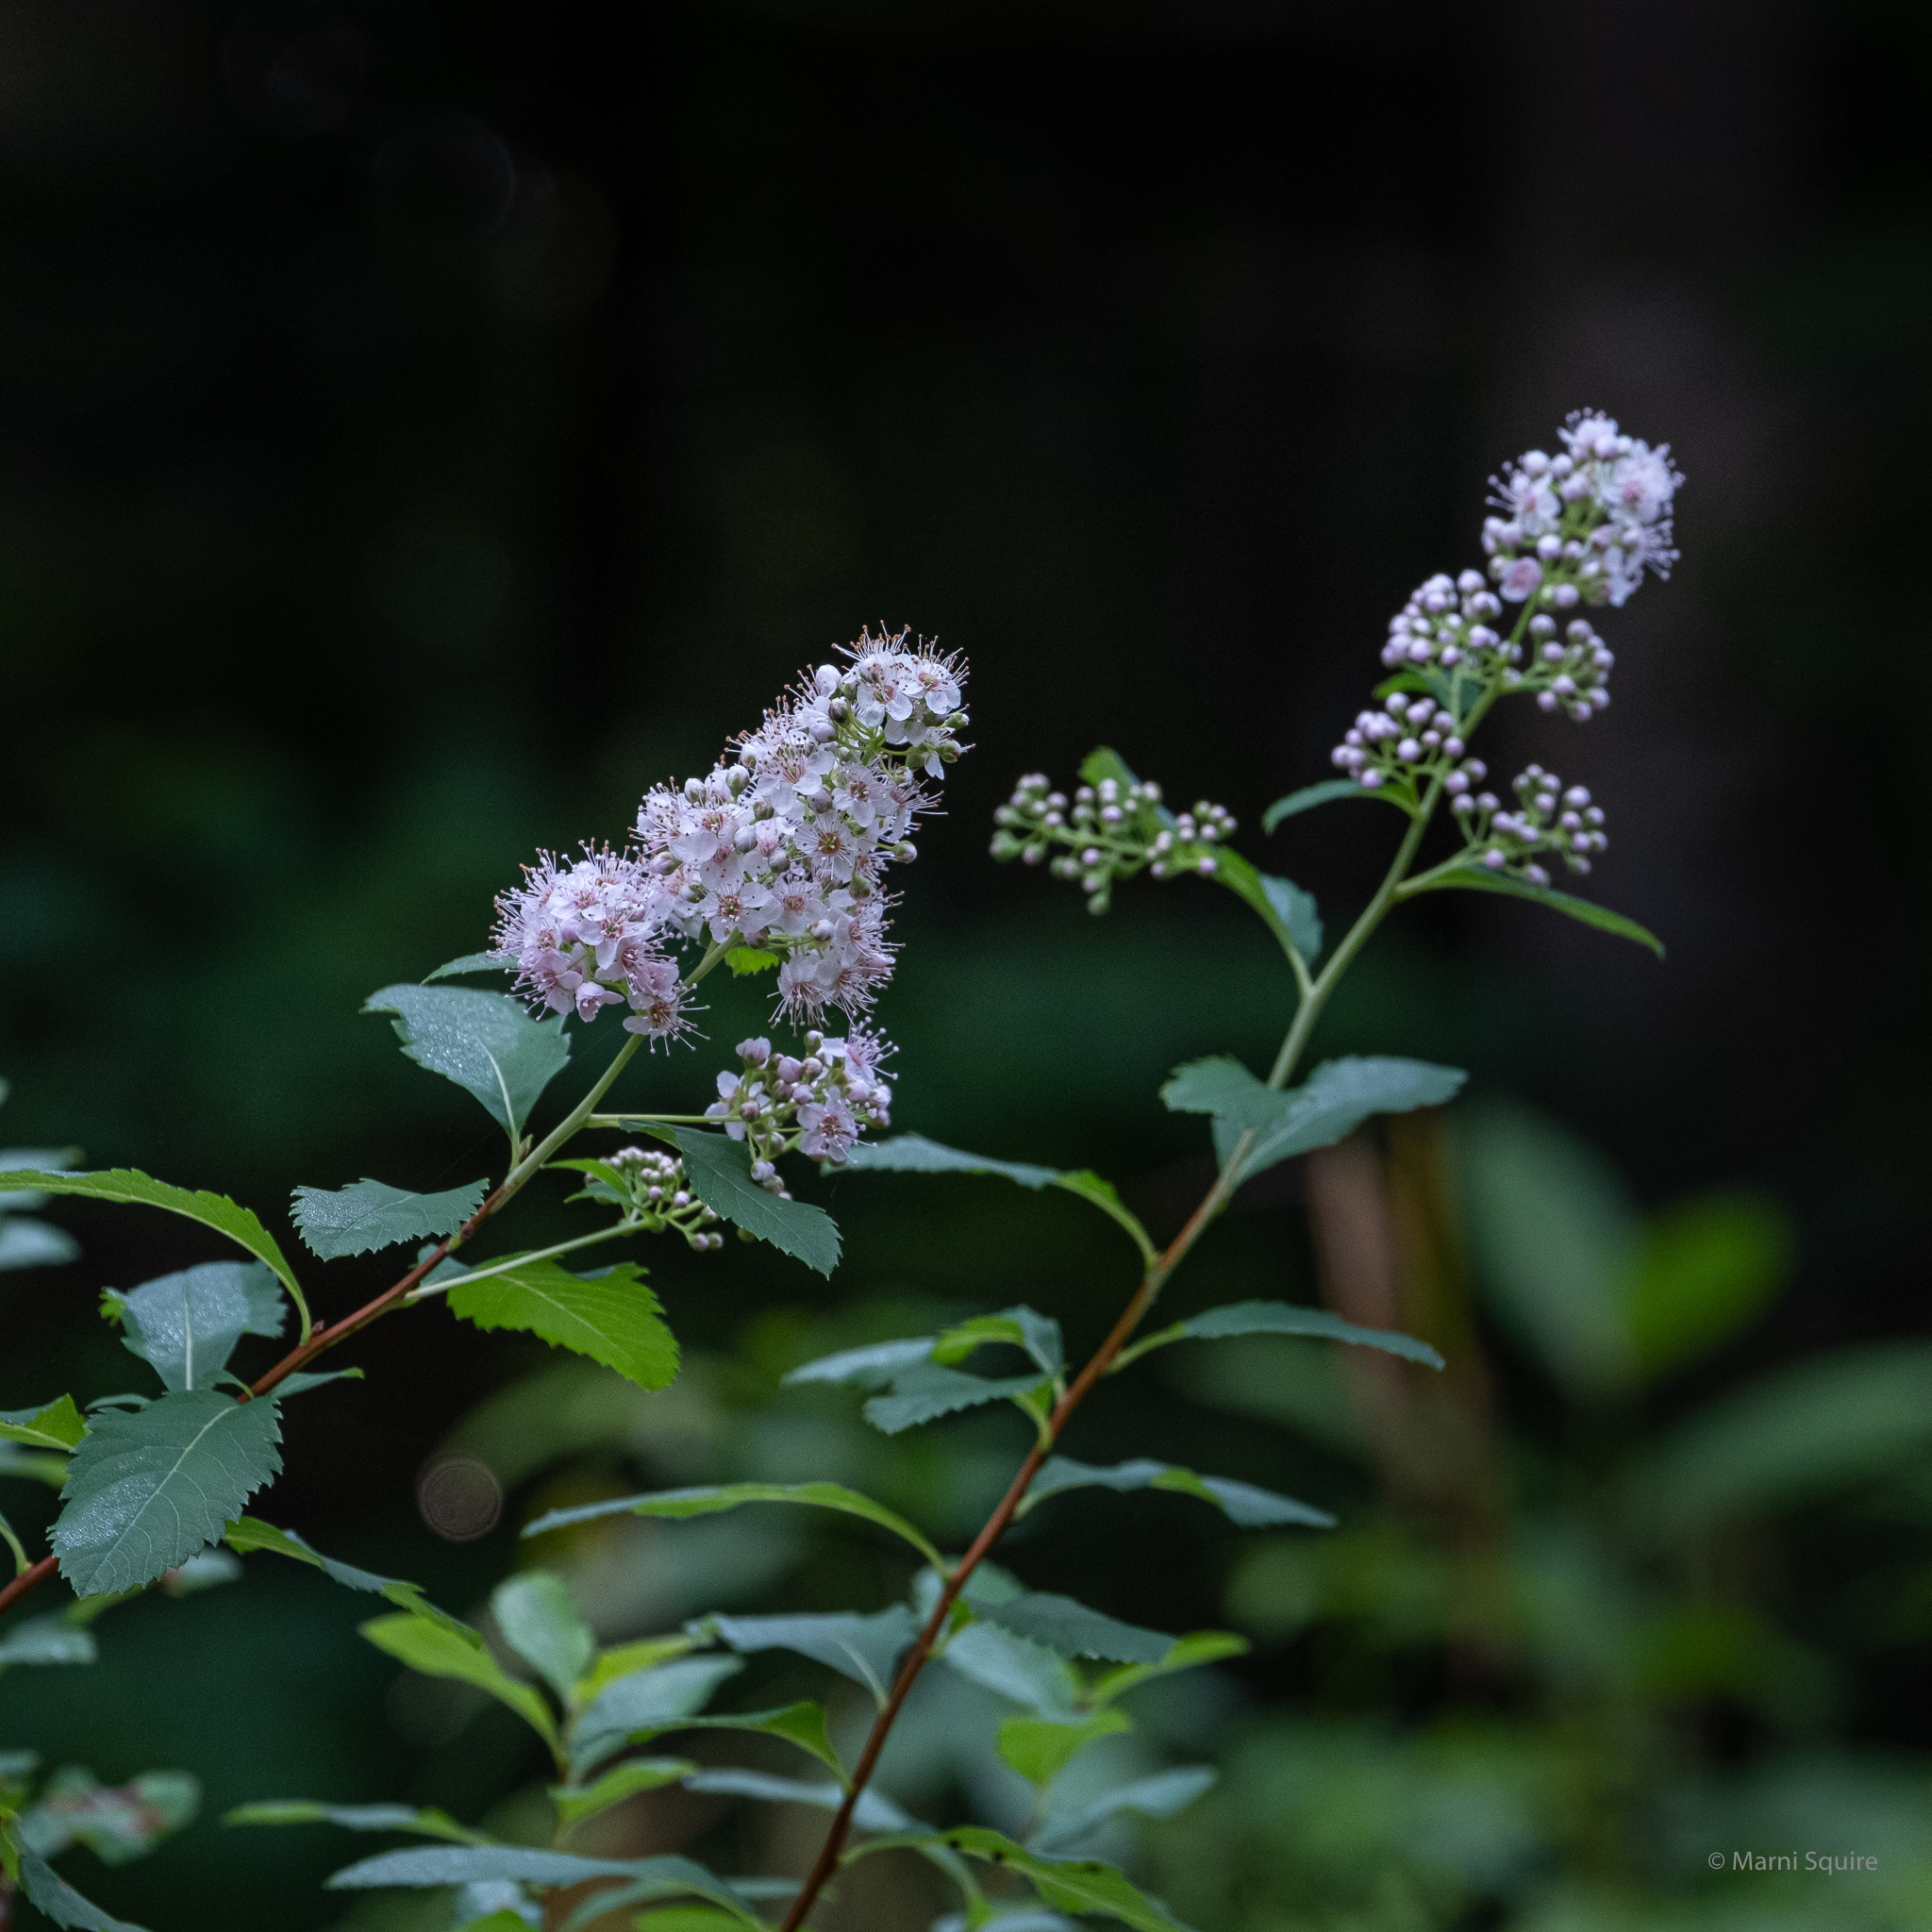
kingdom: Plantae
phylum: Tracheophyta
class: Magnoliopsida
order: Rosales
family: Rosaceae
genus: Spiraea
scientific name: Spiraea alba
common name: Pale bridewort
